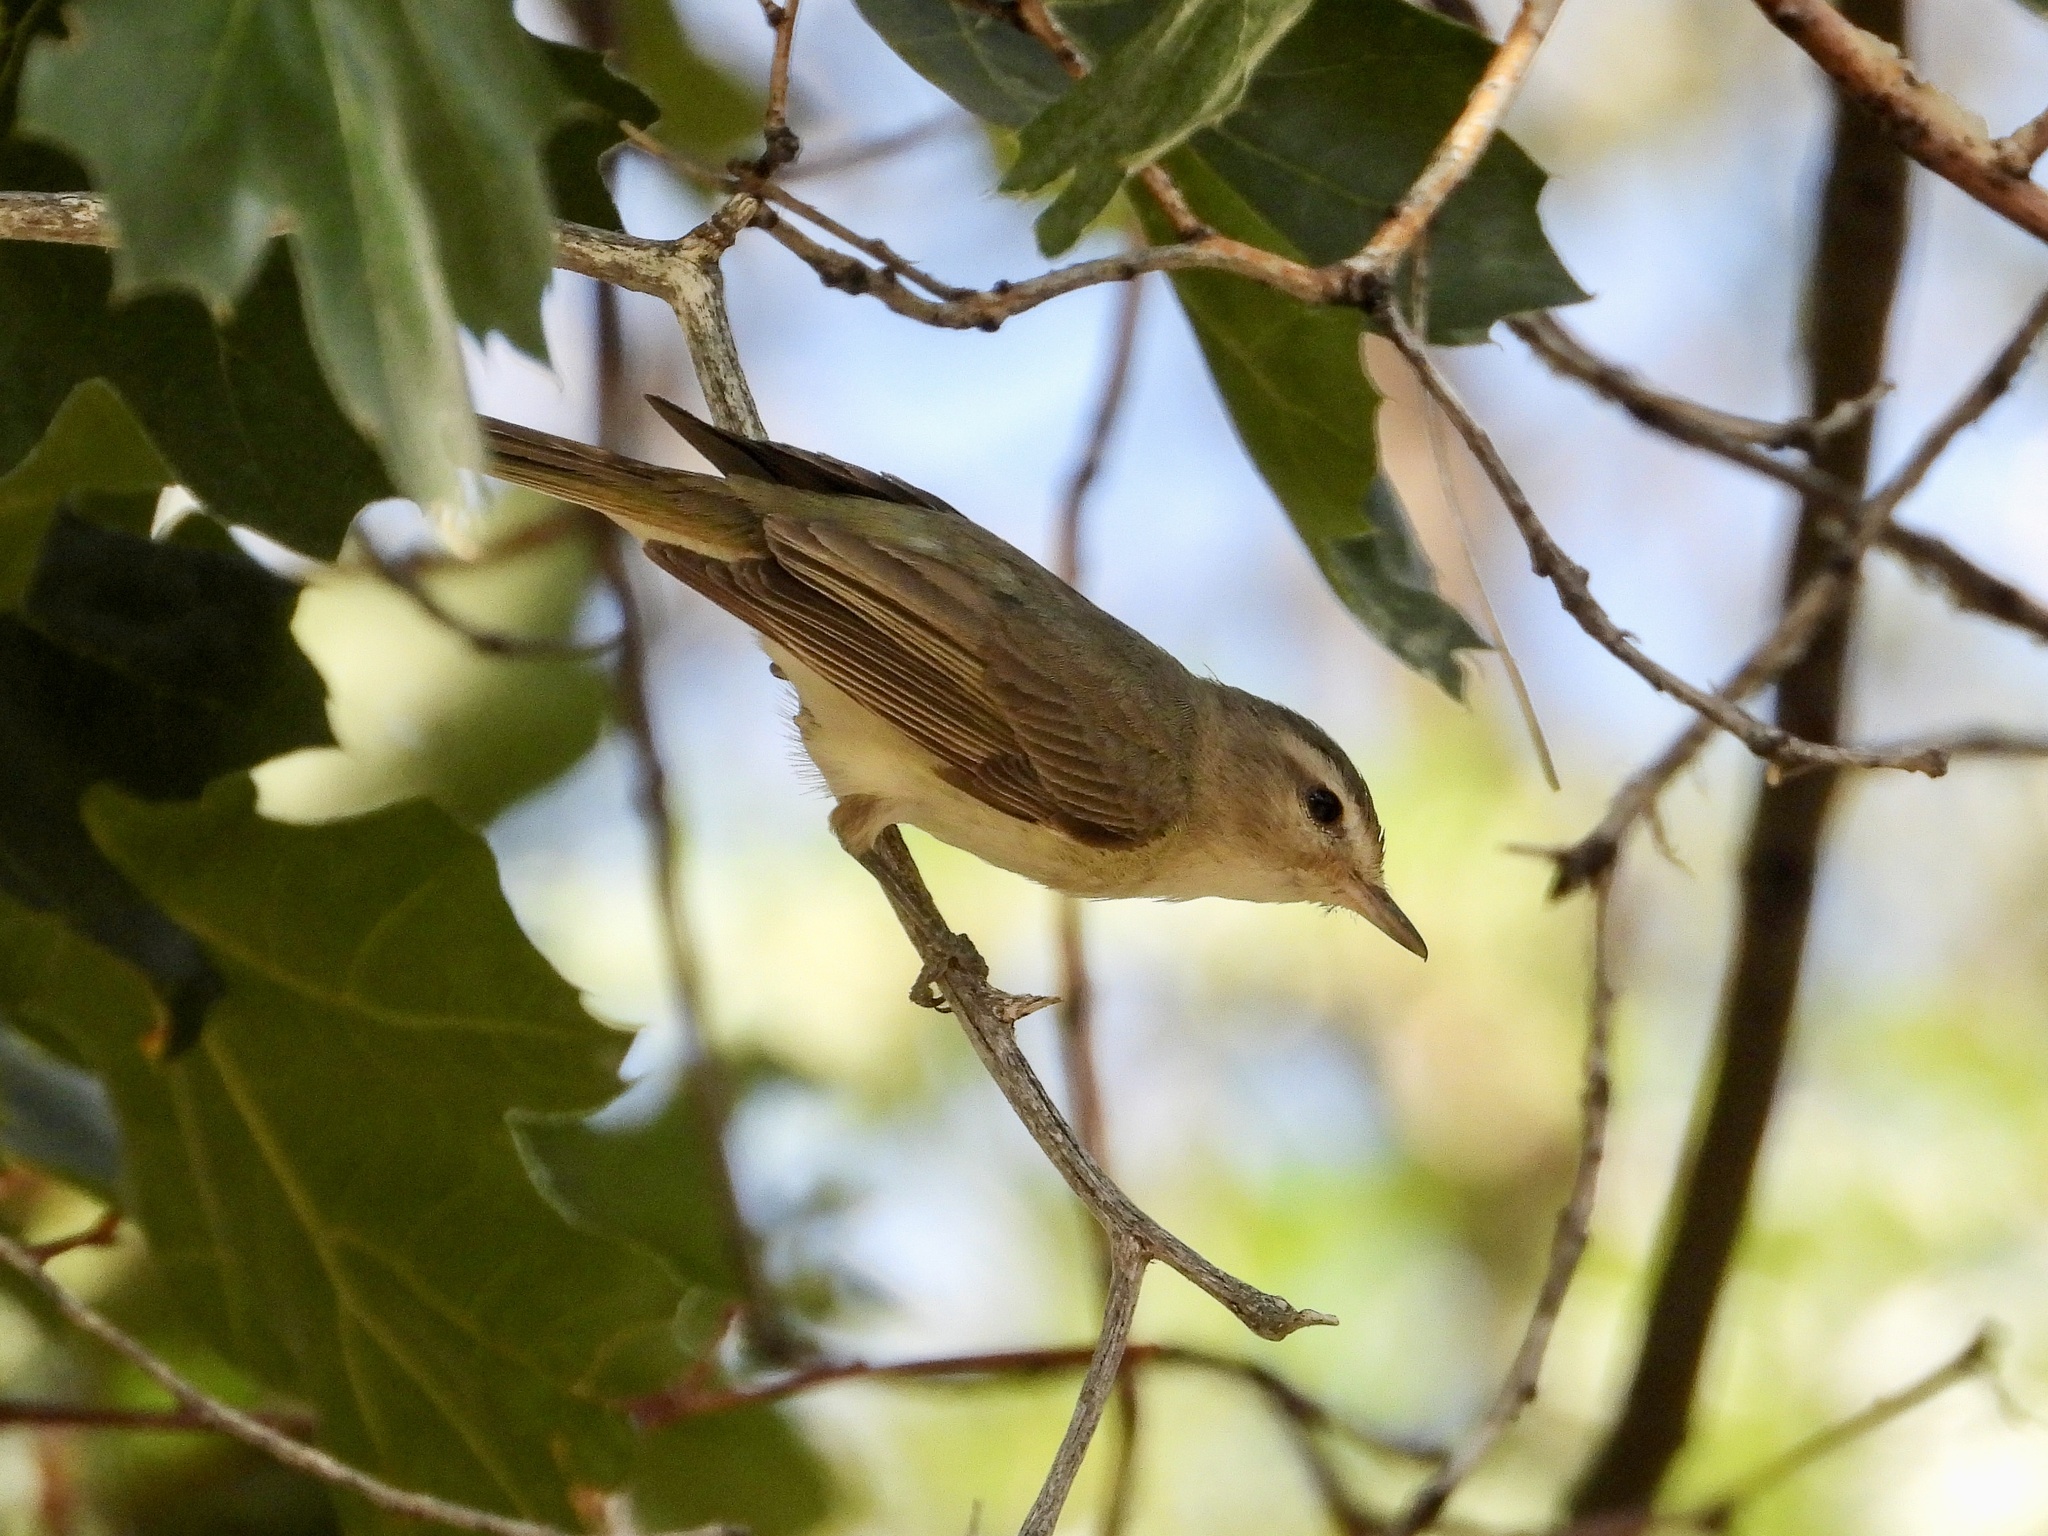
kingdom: Animalia
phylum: Chordata
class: Aves
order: Passeriformes
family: Vireonidae
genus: Vireo
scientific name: Vireo gilvus
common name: Warbling vireo
